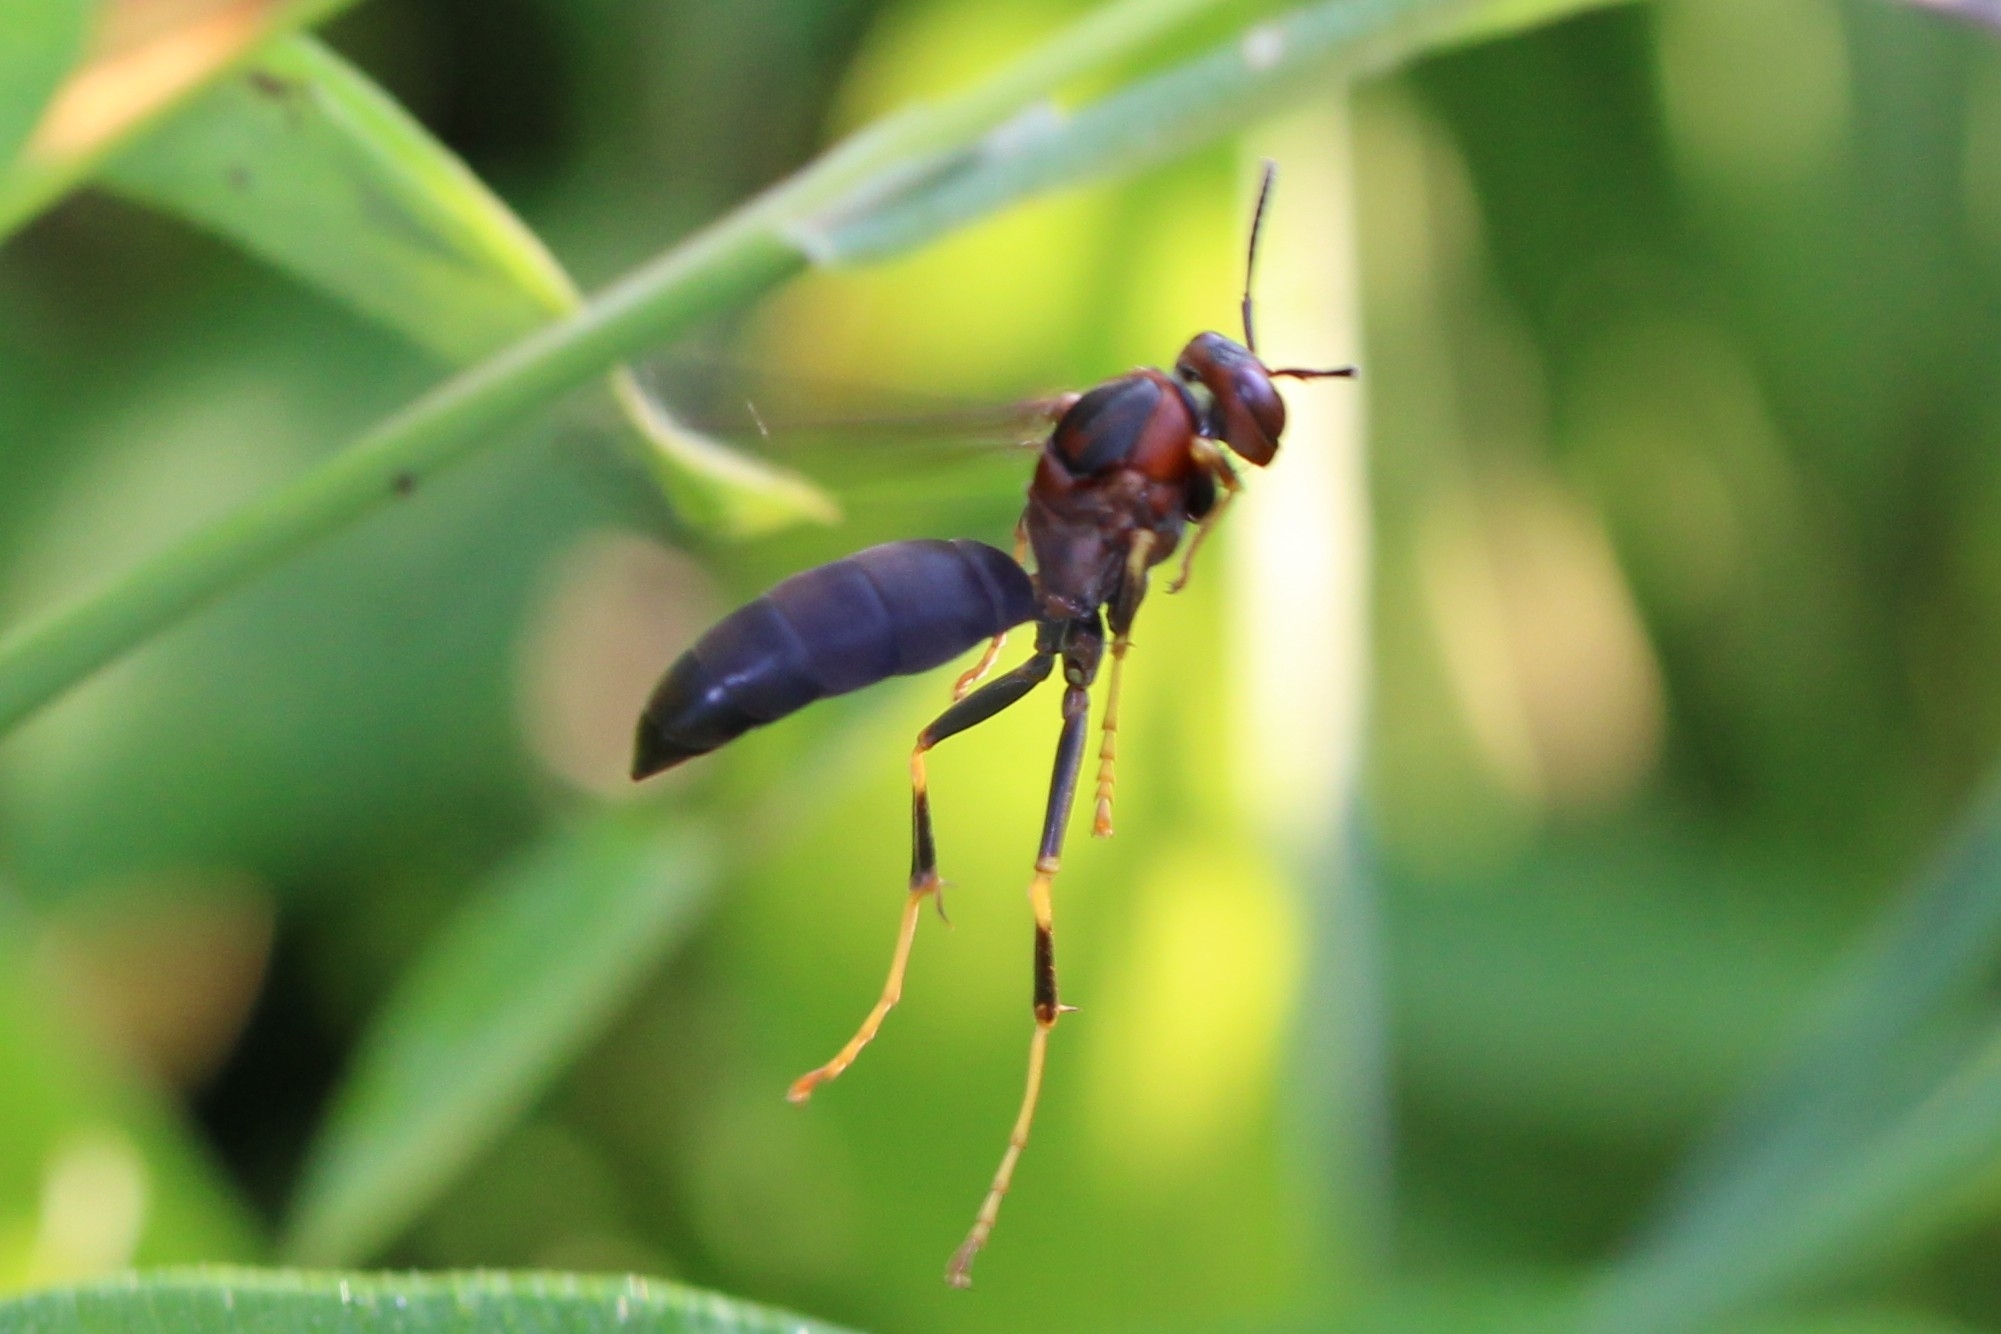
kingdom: Animalia
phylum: Arthropoda
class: Insecta
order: Hymenoptera
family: Eumenidae
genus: Polistes
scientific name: Polistes metricus
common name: Metric paper wasp
